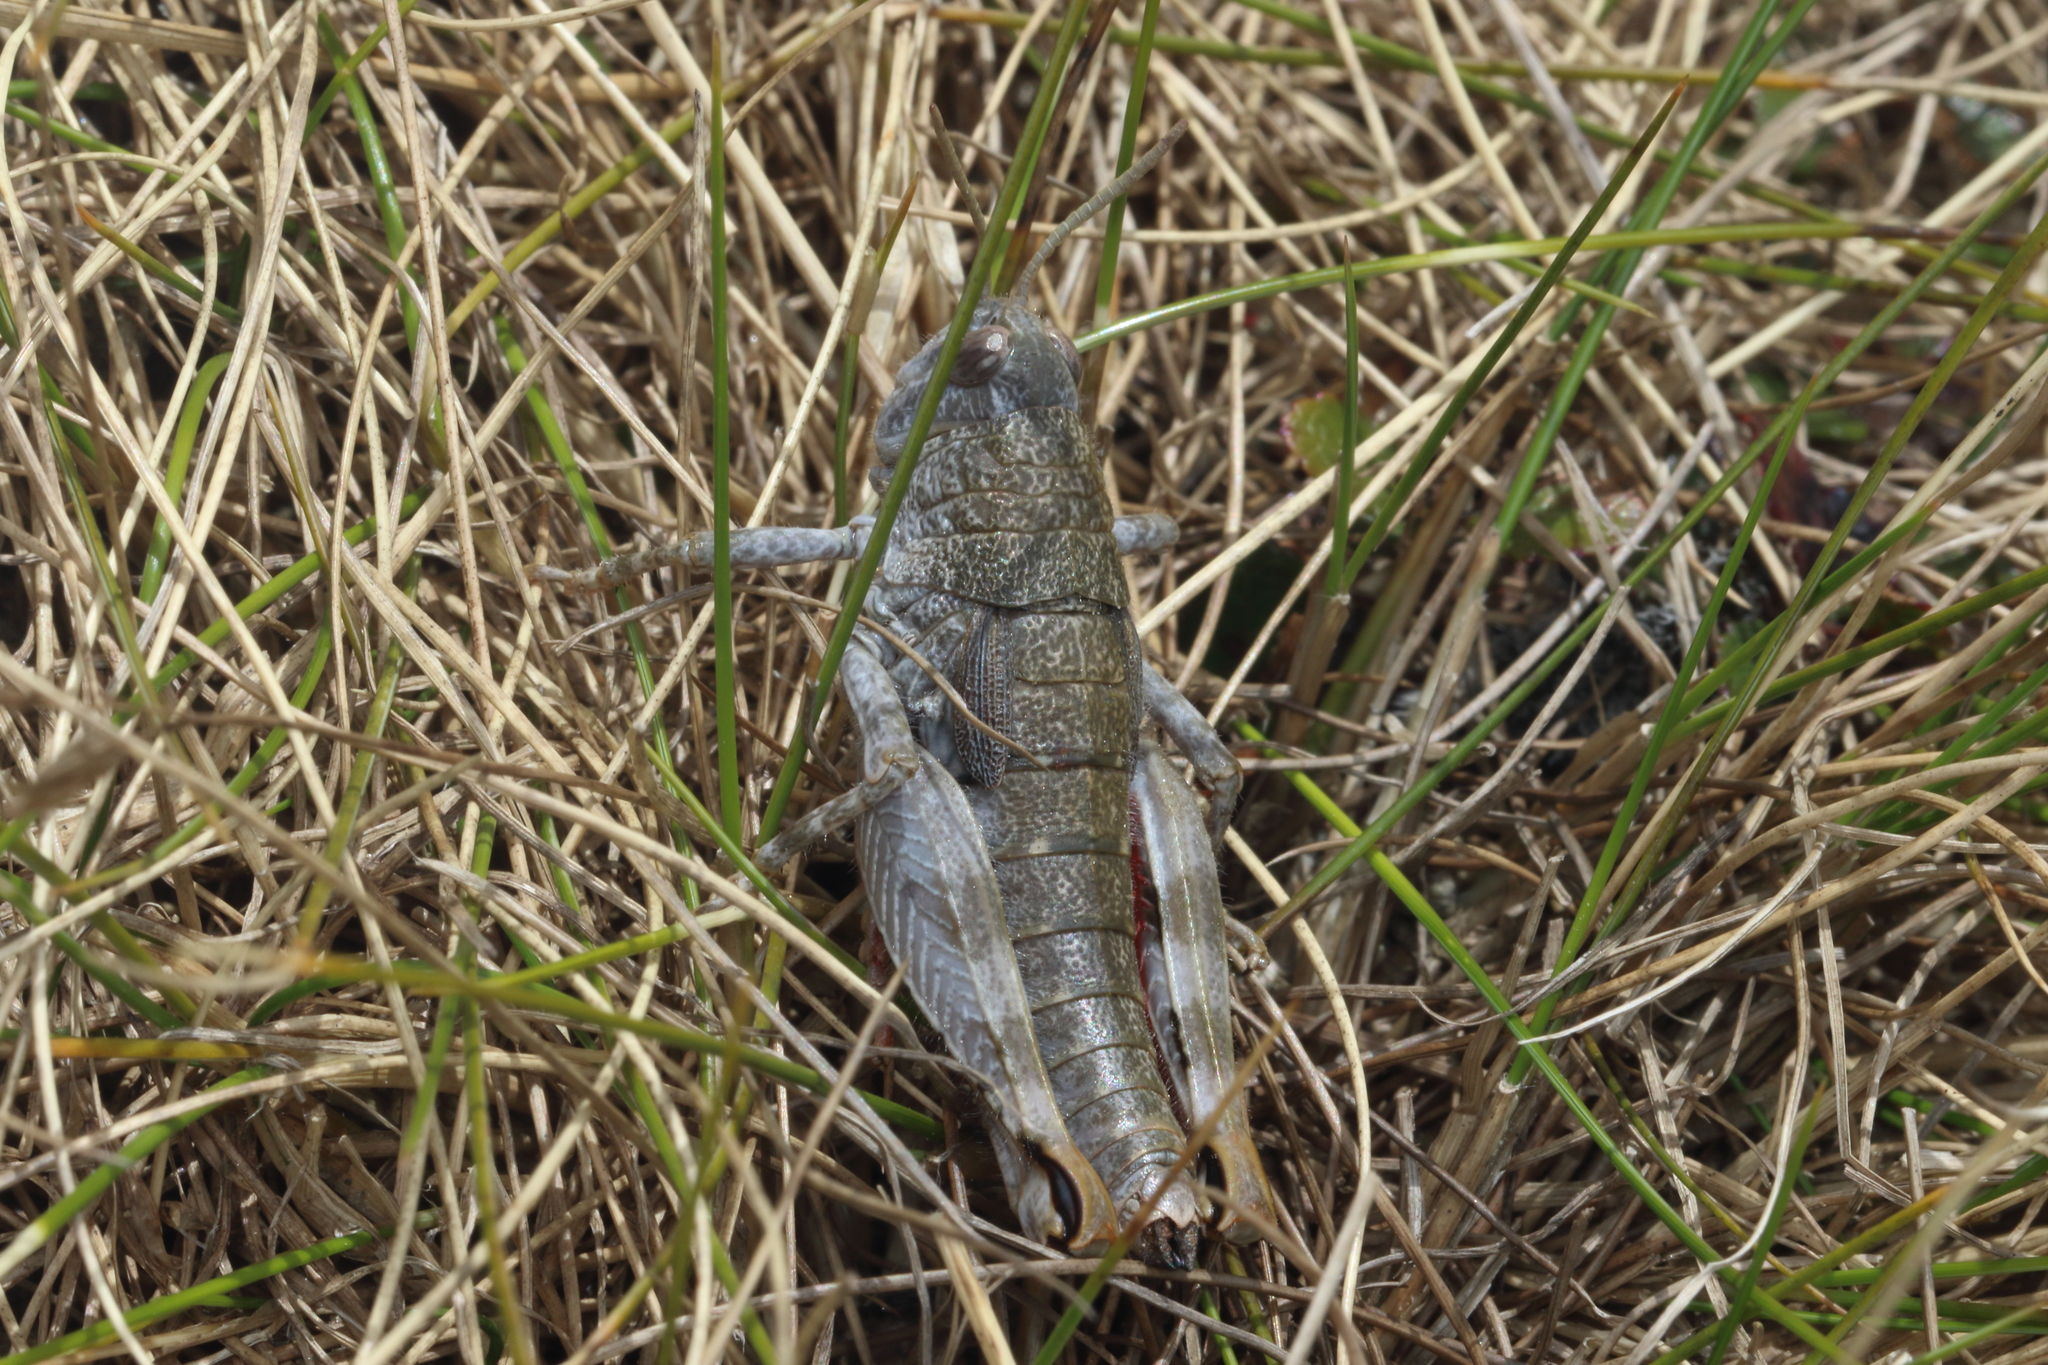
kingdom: Animalia
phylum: Arthropoda
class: Insecta
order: Orthoptera
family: Acrididae
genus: Sigaus
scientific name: Sigaus
